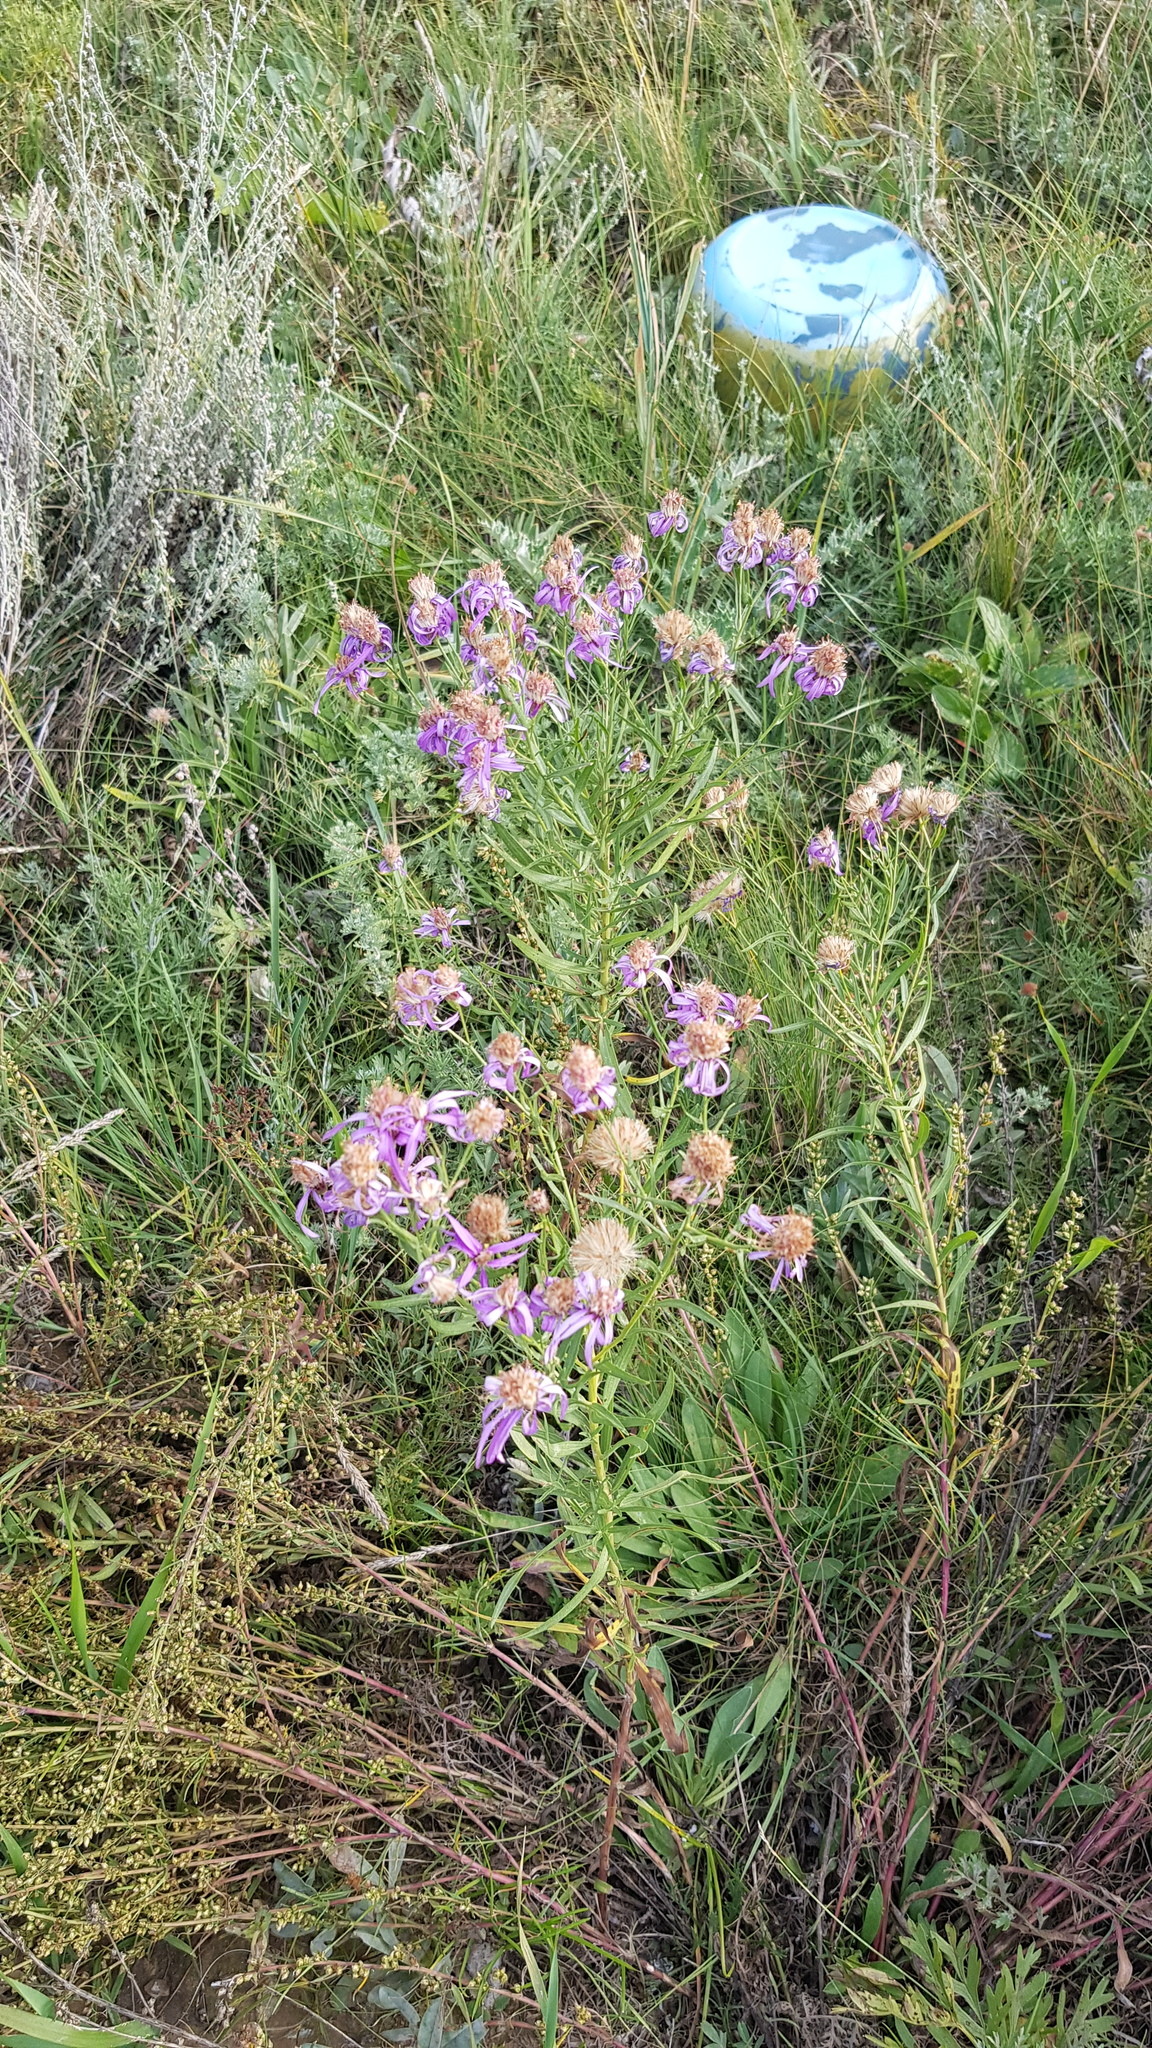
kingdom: Plantae
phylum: Tracheophyta
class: Magnoliopsida
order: Asterales
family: Asteraceae
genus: Galatella
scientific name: Galatella dahurica
